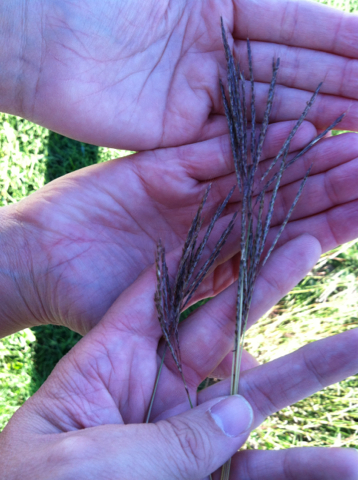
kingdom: Plantae
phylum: Tracheophyta
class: Liliopsida
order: Poales
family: Poaceae
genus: Bothriochloa
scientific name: Bothriochloa ischaemum
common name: Yellow bluestem
